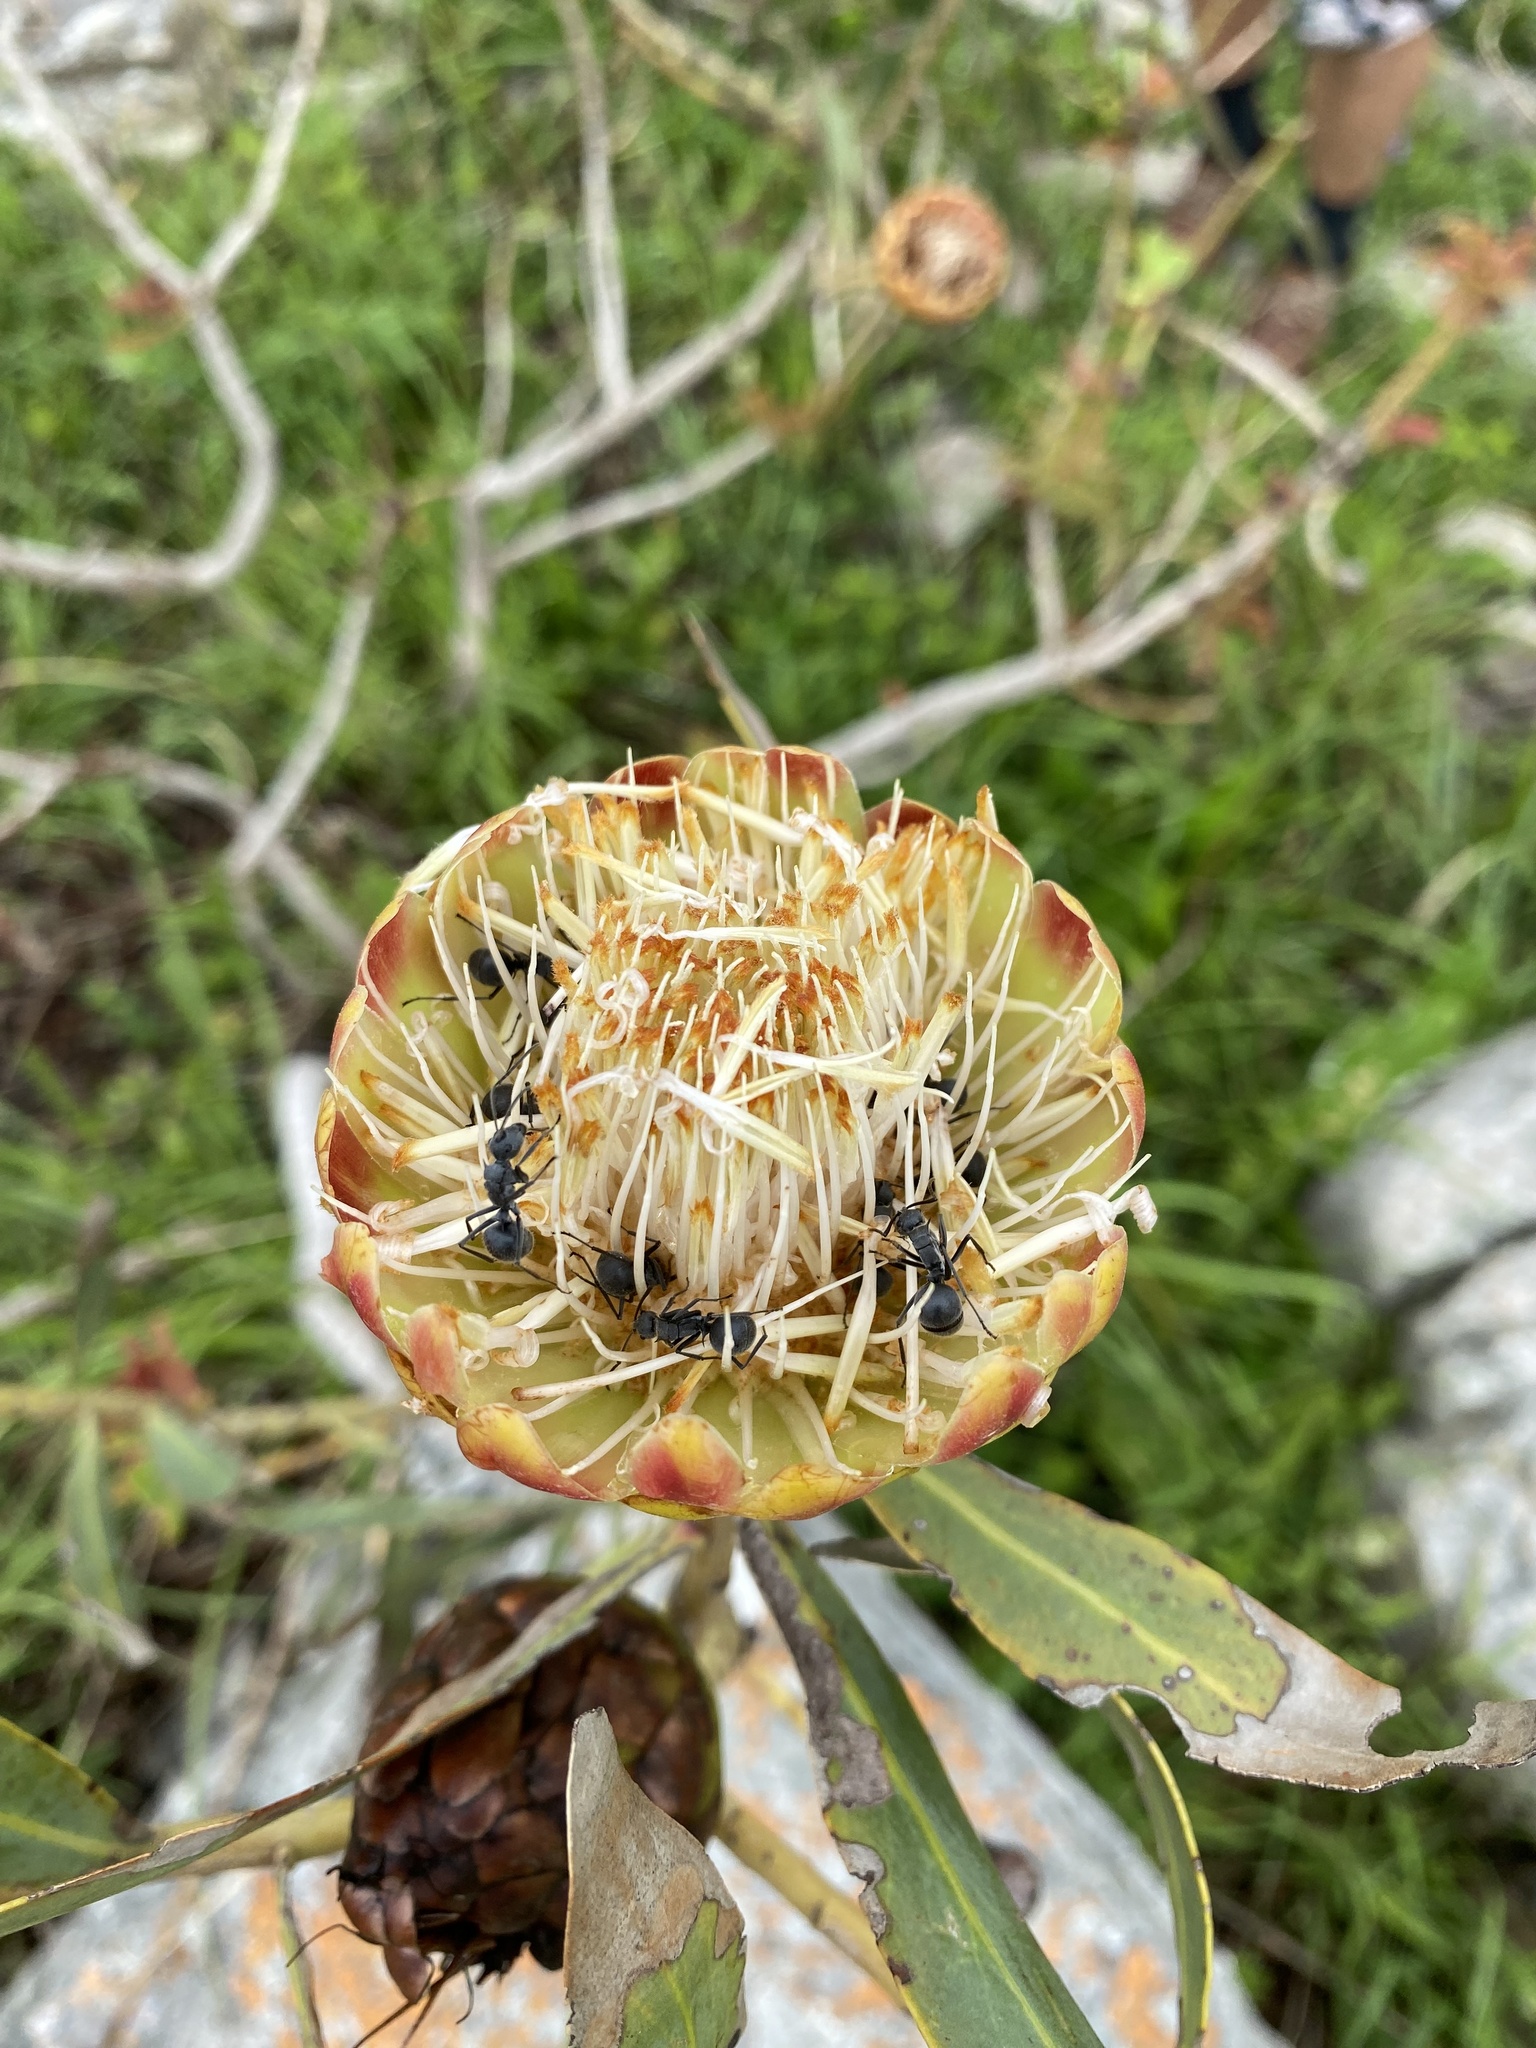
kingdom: Plantae
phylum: Tracheophyta
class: Magnoliopsida
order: Proteales
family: Proteaceae
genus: Protea
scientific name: Protea caffra
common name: Common sugarbush
